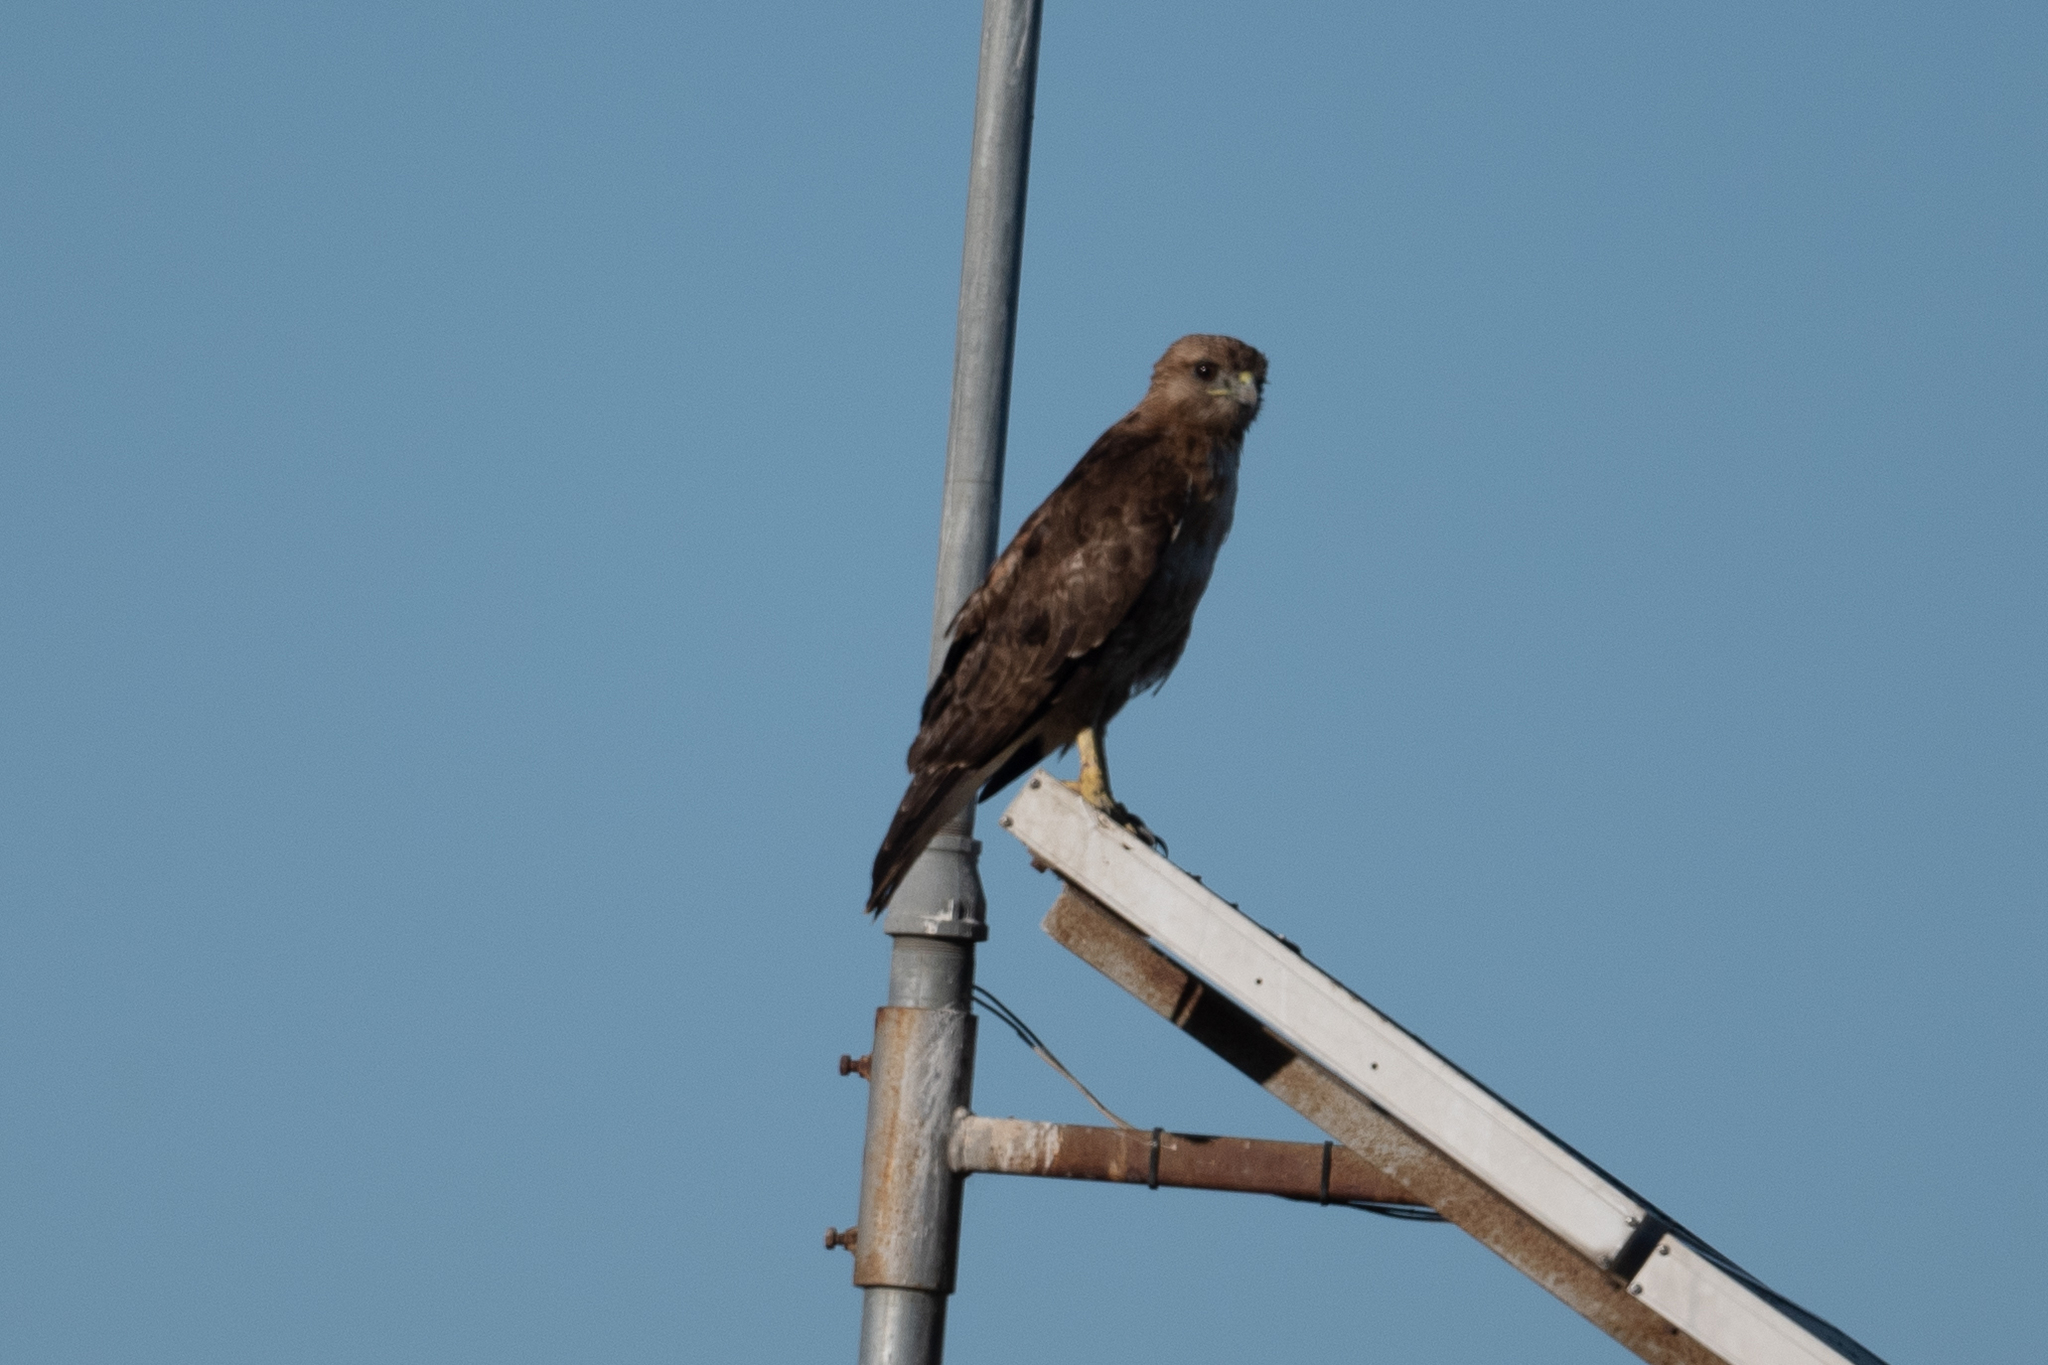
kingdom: Animalia
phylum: Chordata
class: Aves
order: Accipitriformes
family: Accipitridae
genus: Buteo
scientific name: Buteo swainsoni
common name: Swainson's hawk
